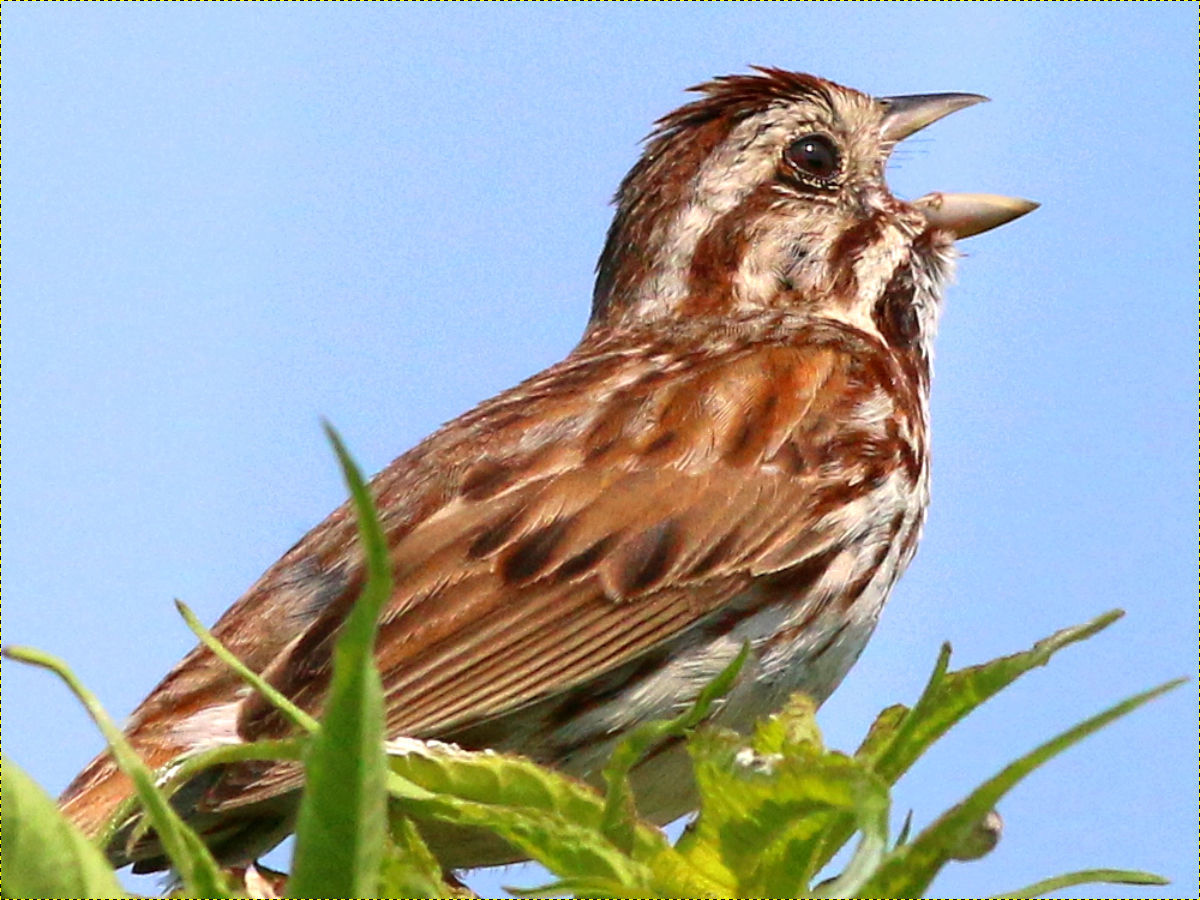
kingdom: Animalia
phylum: Chordata
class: Aves
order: Passeriformes
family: Passerellidae
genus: Melospiza
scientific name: Melospiza melodia
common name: Song sparrow
